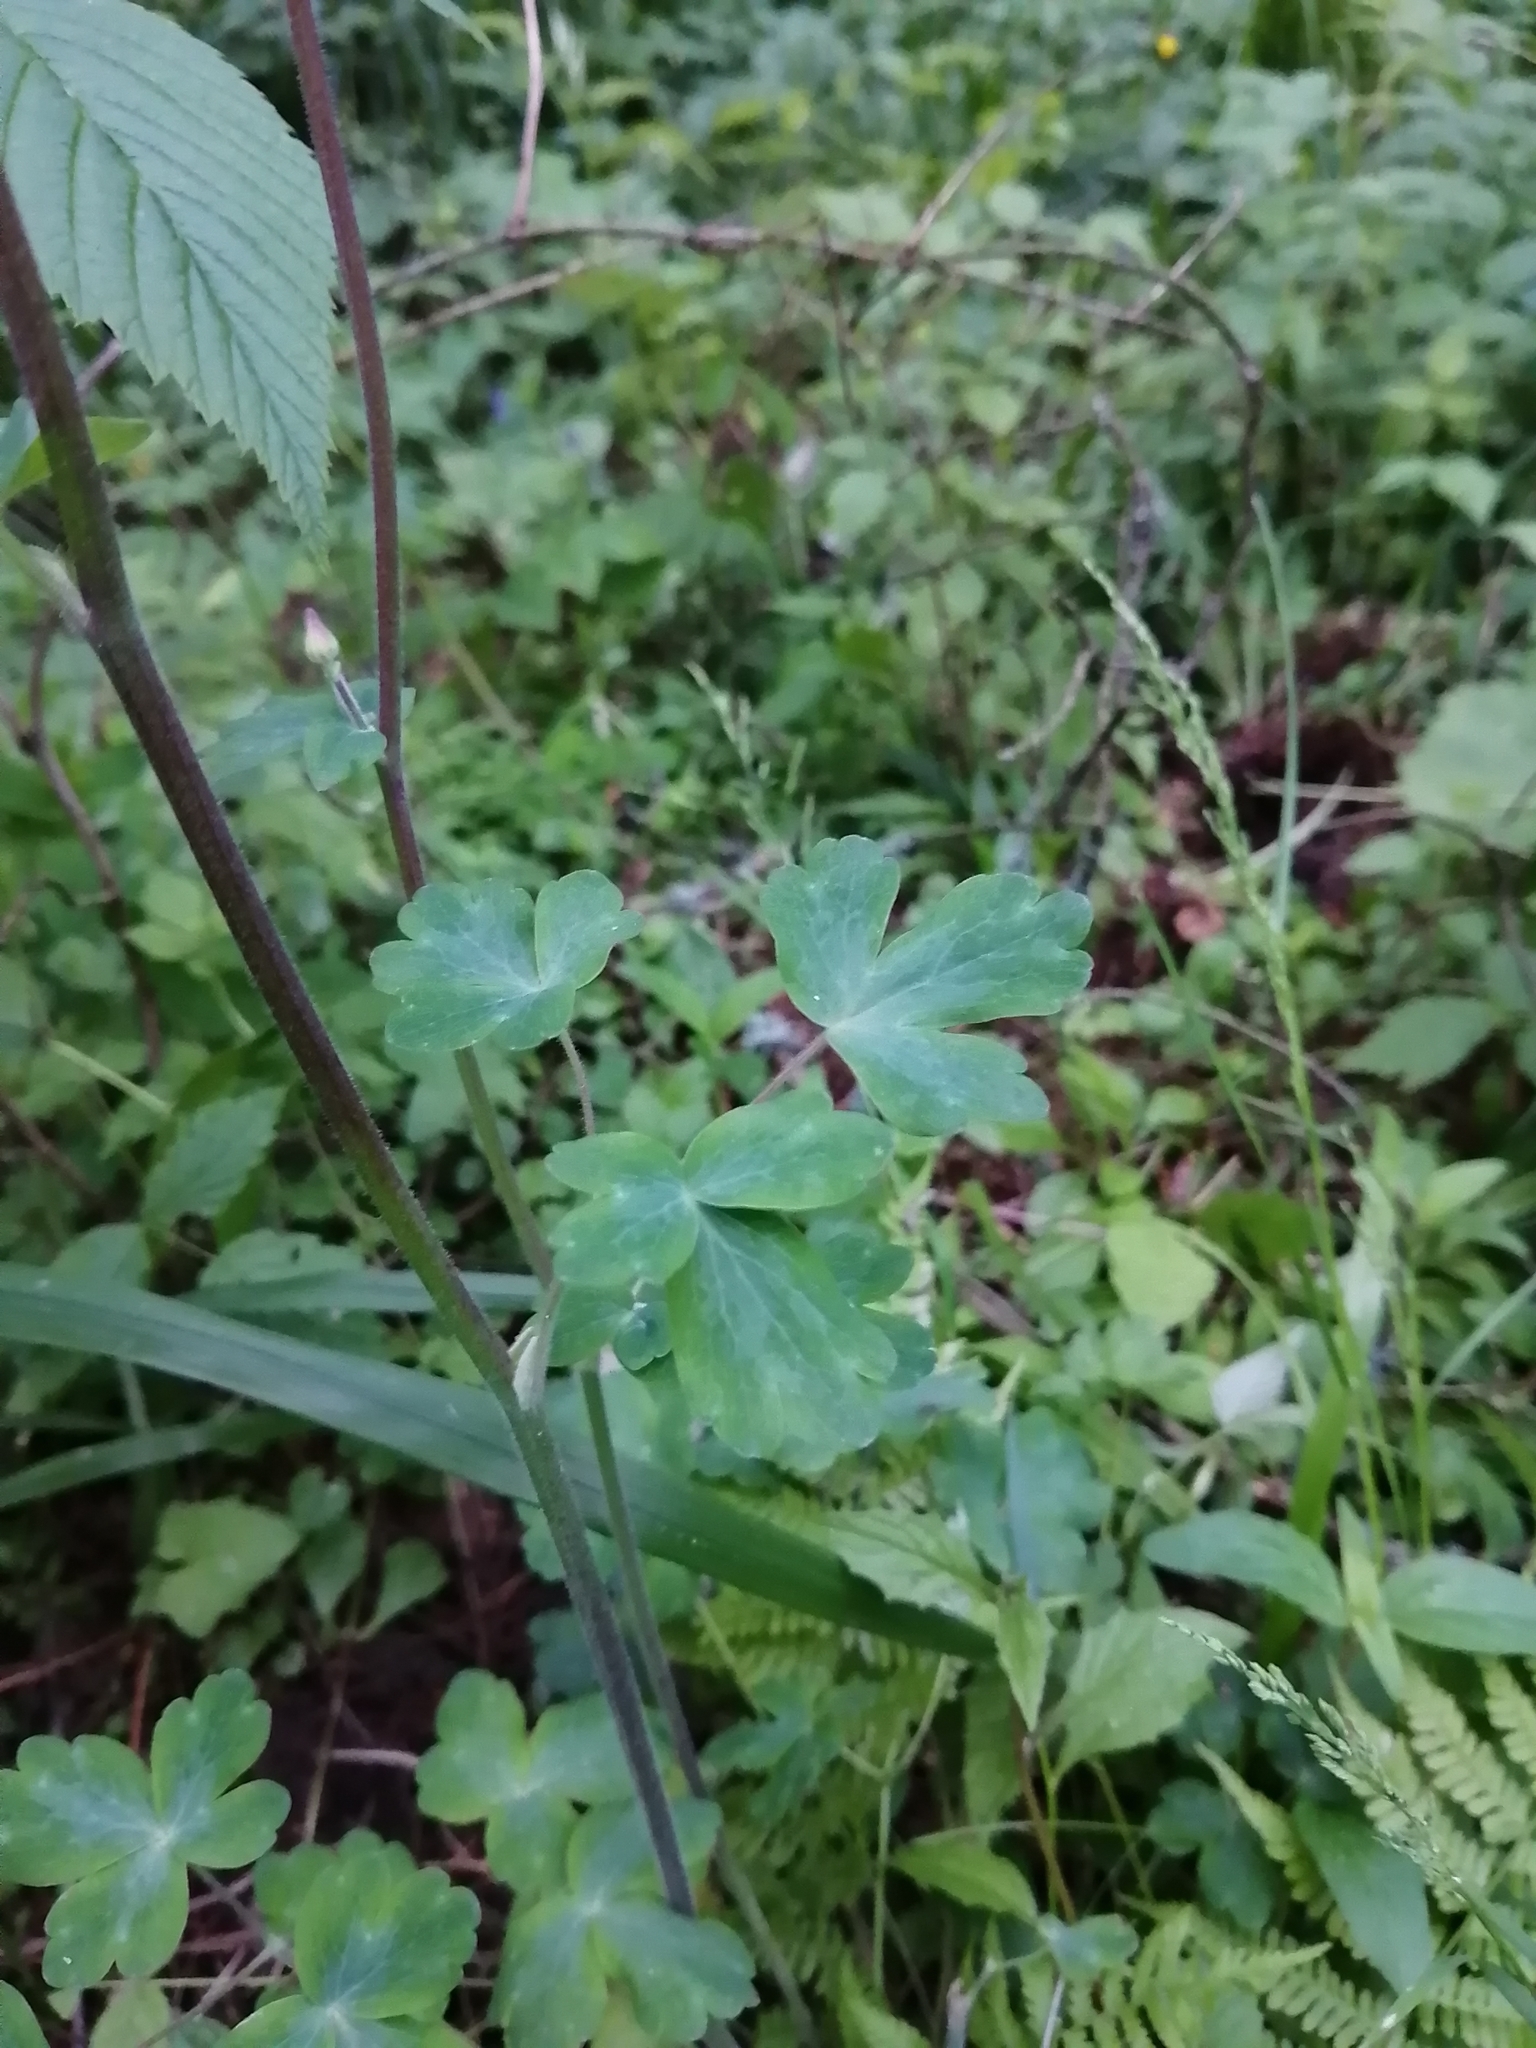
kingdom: Plantae
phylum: Tracheophyta
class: Magnoliopsida
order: Ranunculales
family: Ranunculaceae
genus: Aquilegia
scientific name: Aquilegia vulgaris
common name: Columbine
